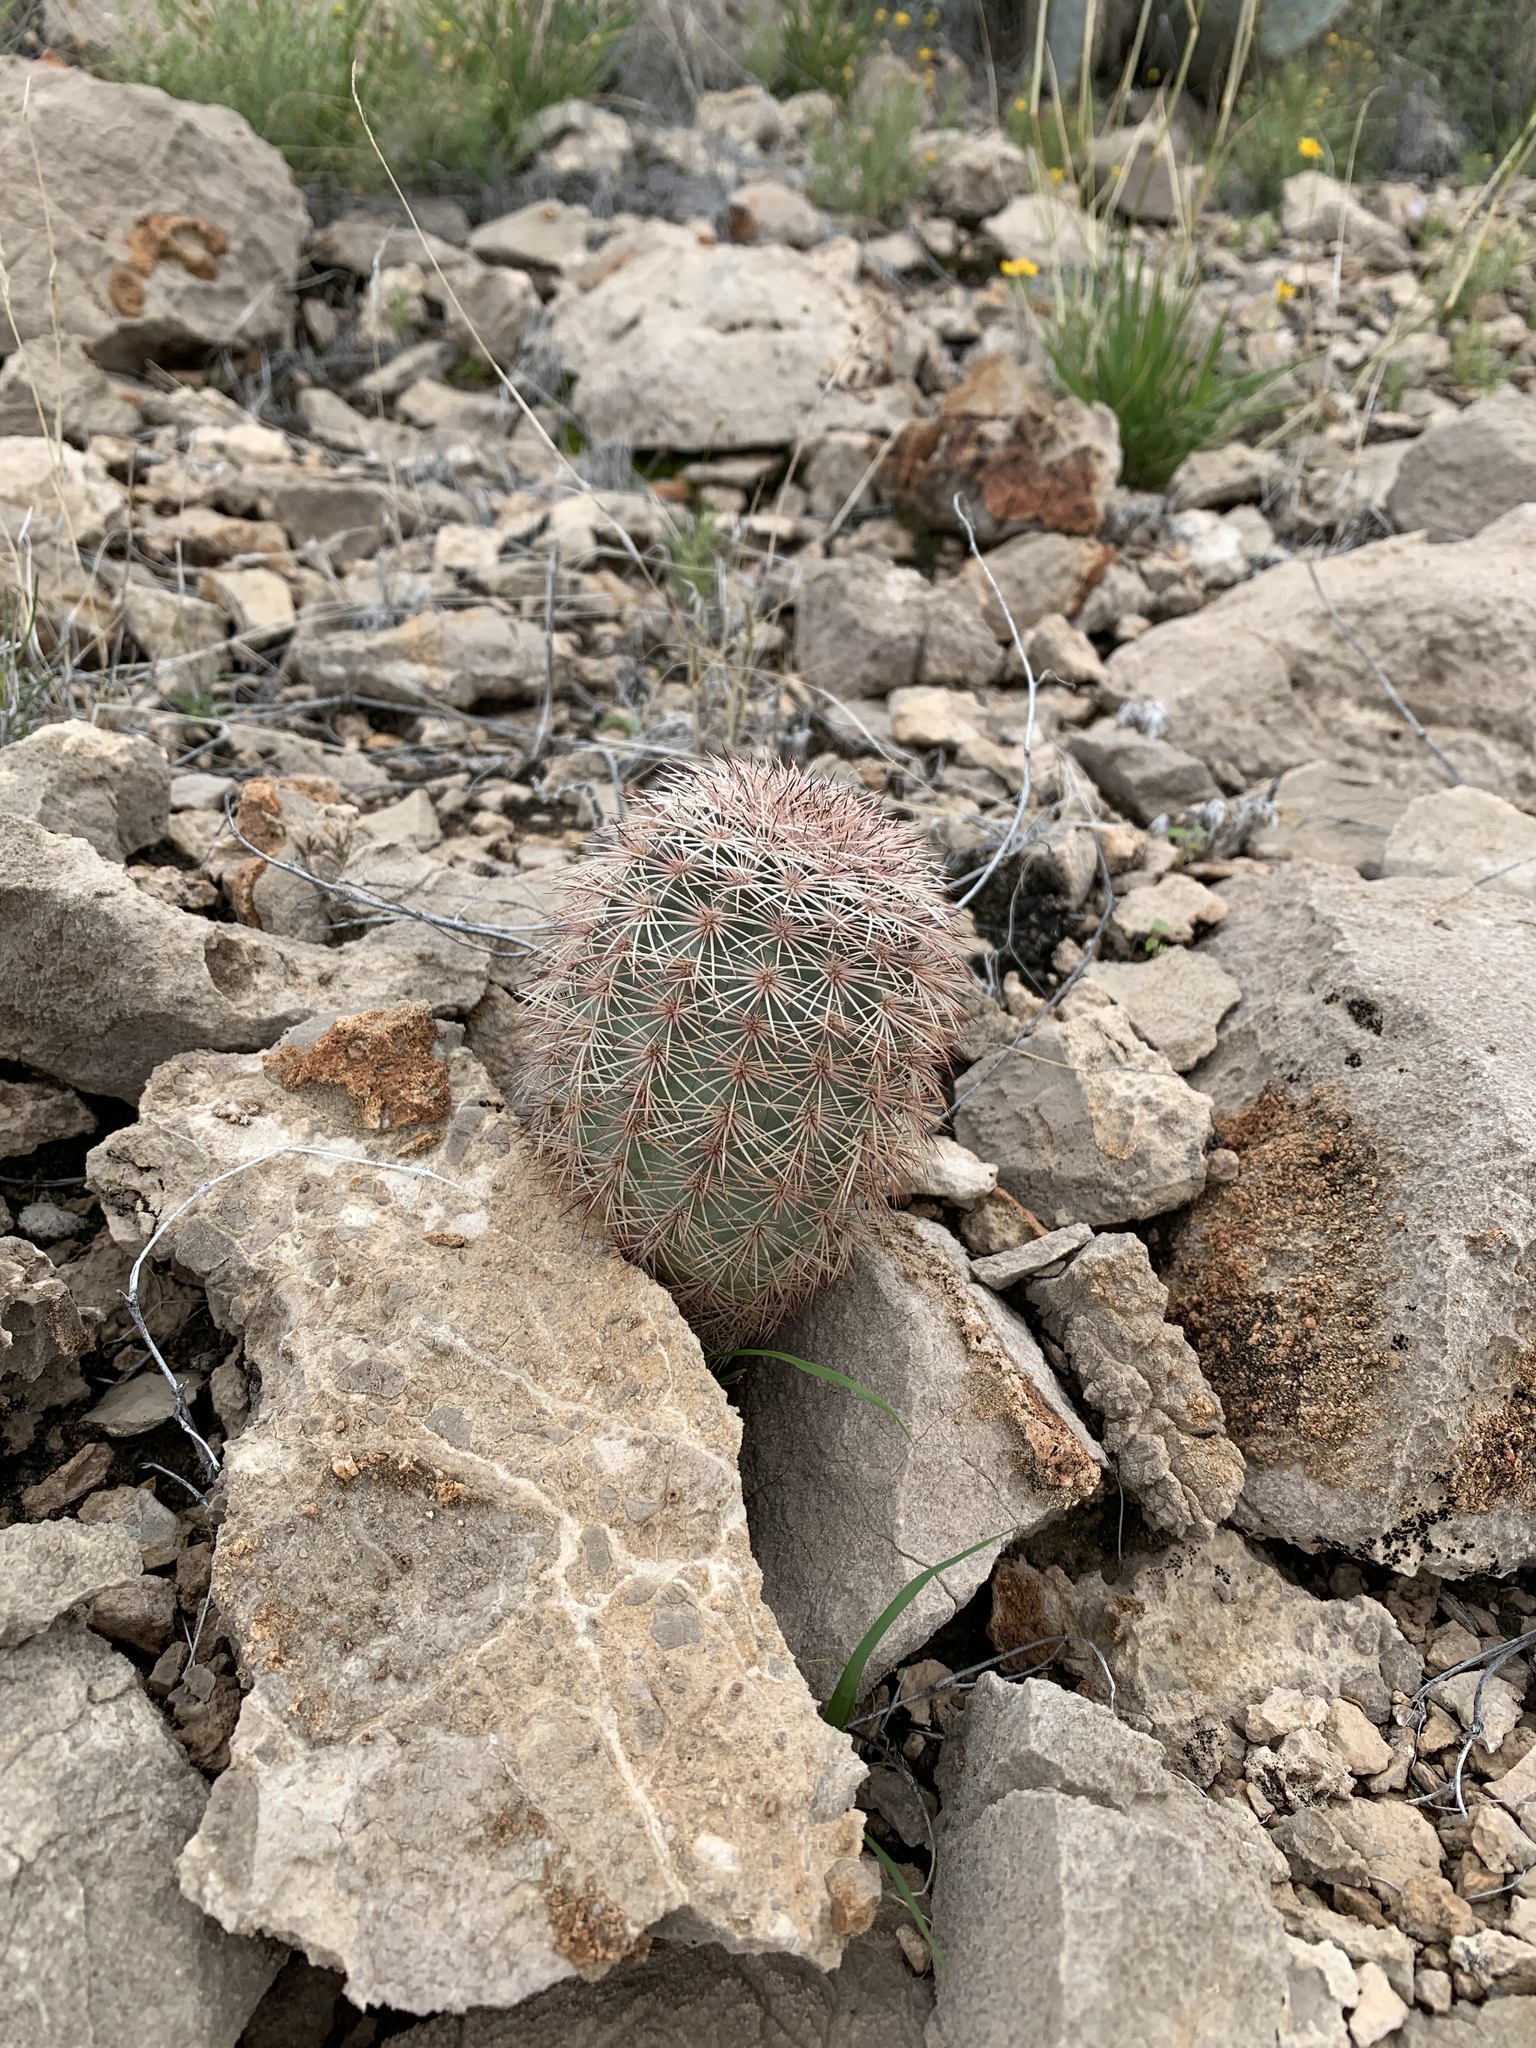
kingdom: Plantae
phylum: Tracheophyta
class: Magnoliopsida
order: Caryophyllales
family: Cactaceae
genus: Echinocereus
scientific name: Echinocereus dasyacanthus
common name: Spiny hedgehog cactus
